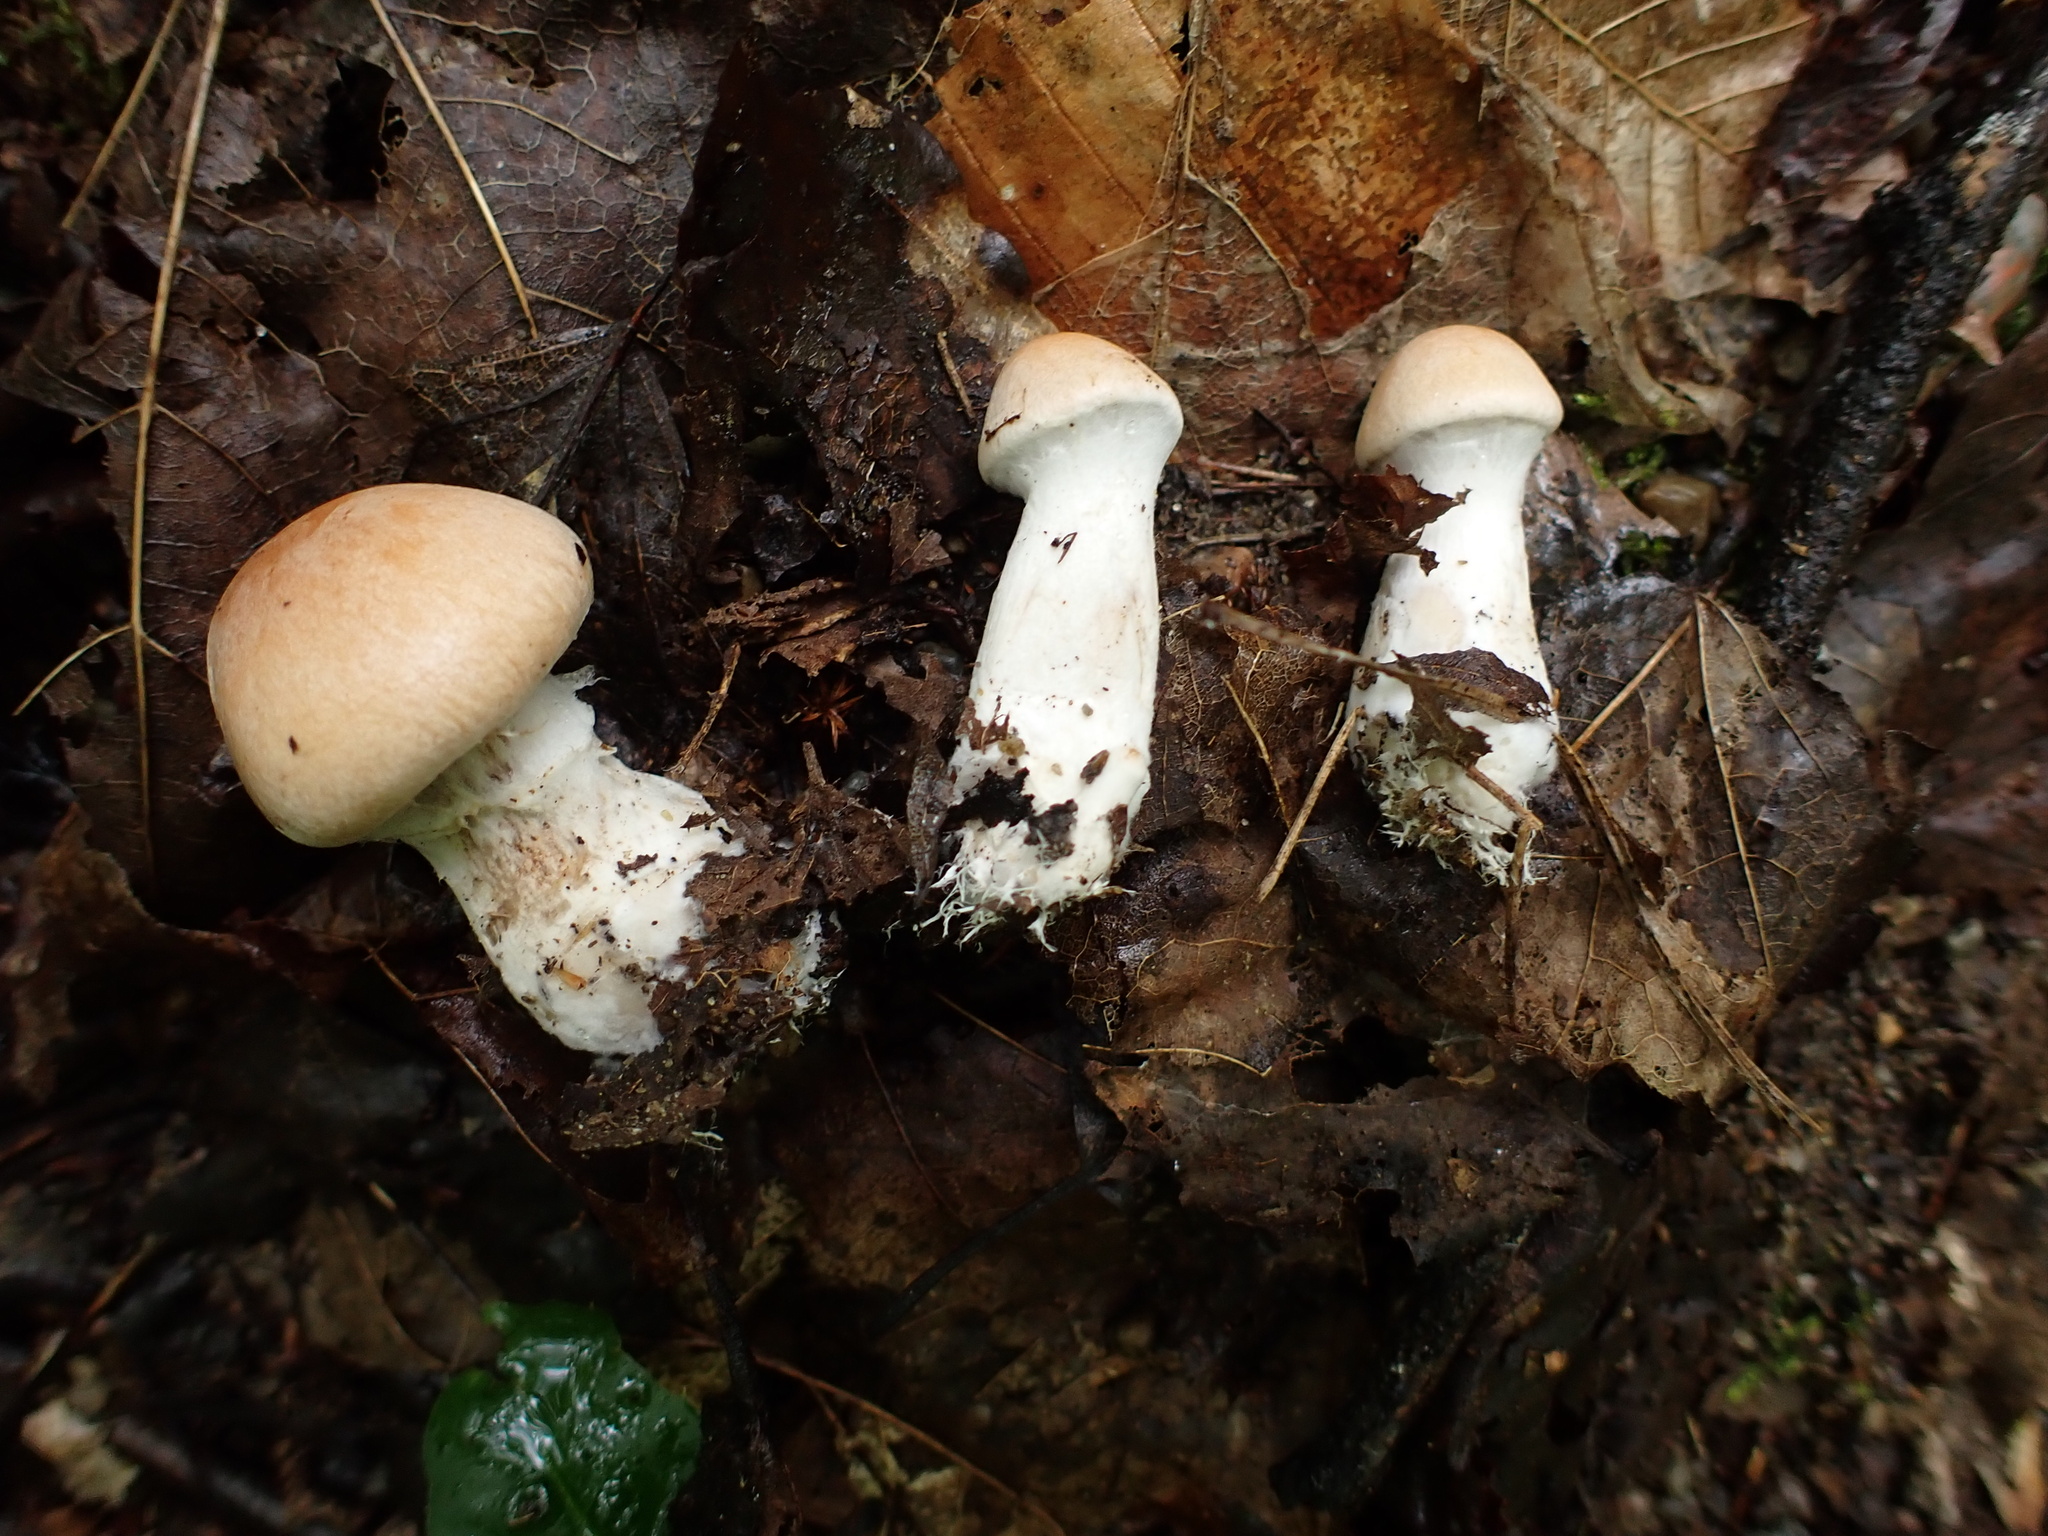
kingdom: Fungi
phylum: Basidiomycota
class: Agaricomycetes
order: Agaricales
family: Cortinariaceae
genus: Cortinarius
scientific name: Cortinarius laniger
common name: Woolly webcap
